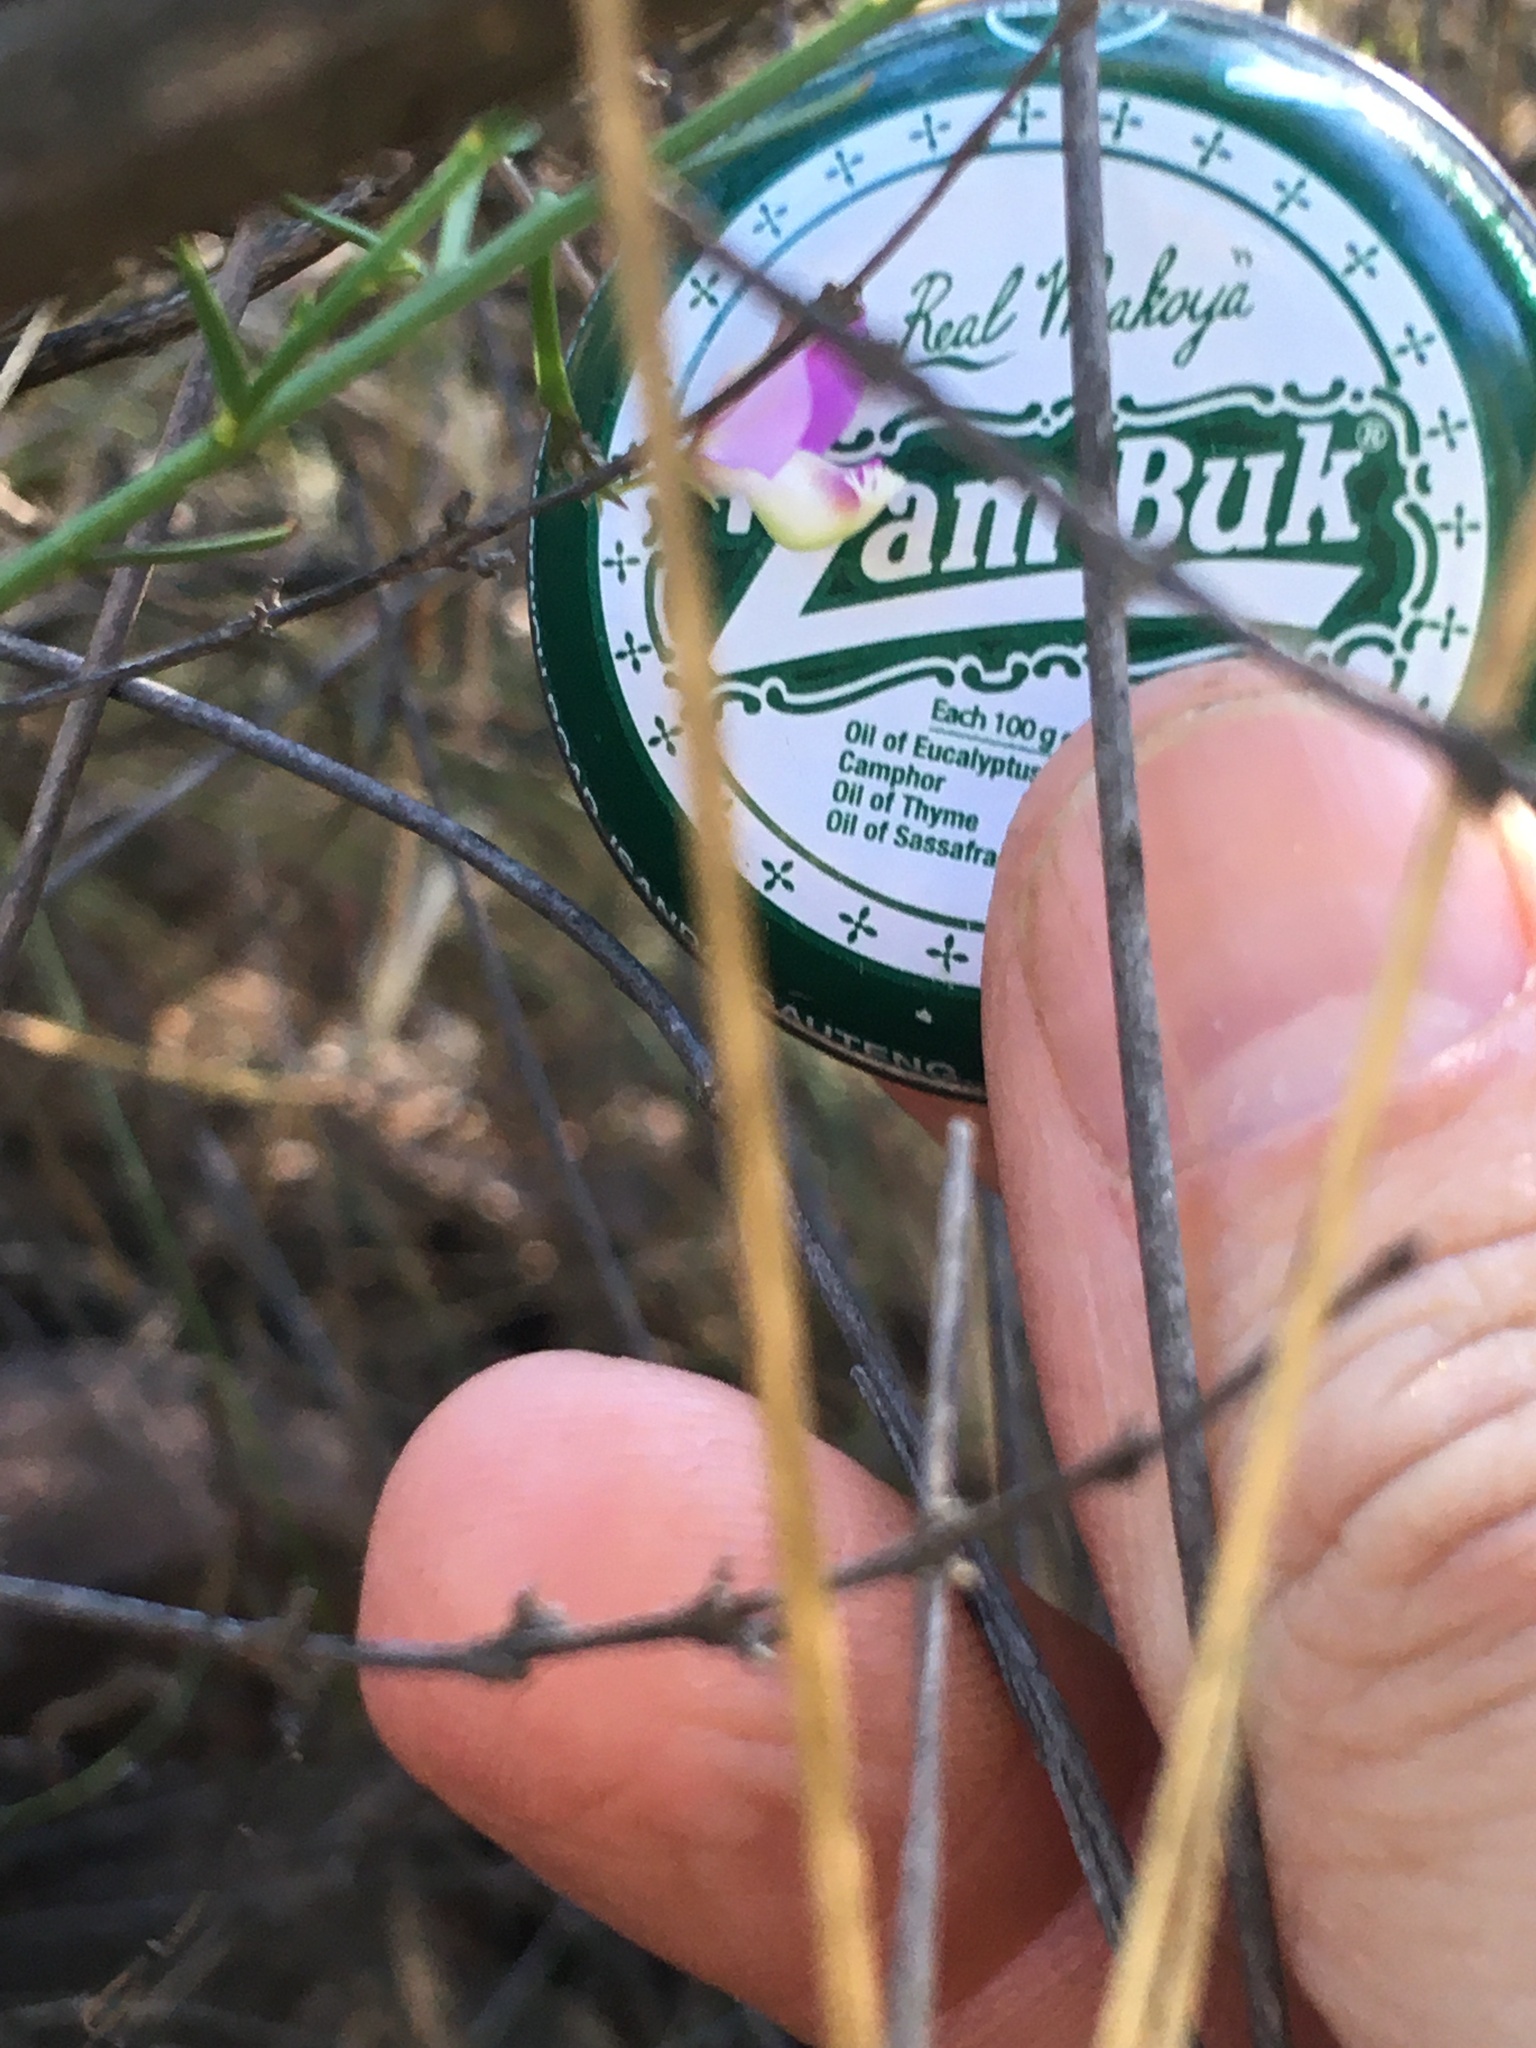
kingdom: Plantae
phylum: Tracheophyta
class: Magnoliopsida
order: Fabales
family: Polygalaceae
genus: Polygala
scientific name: Polygala brachyphylla
